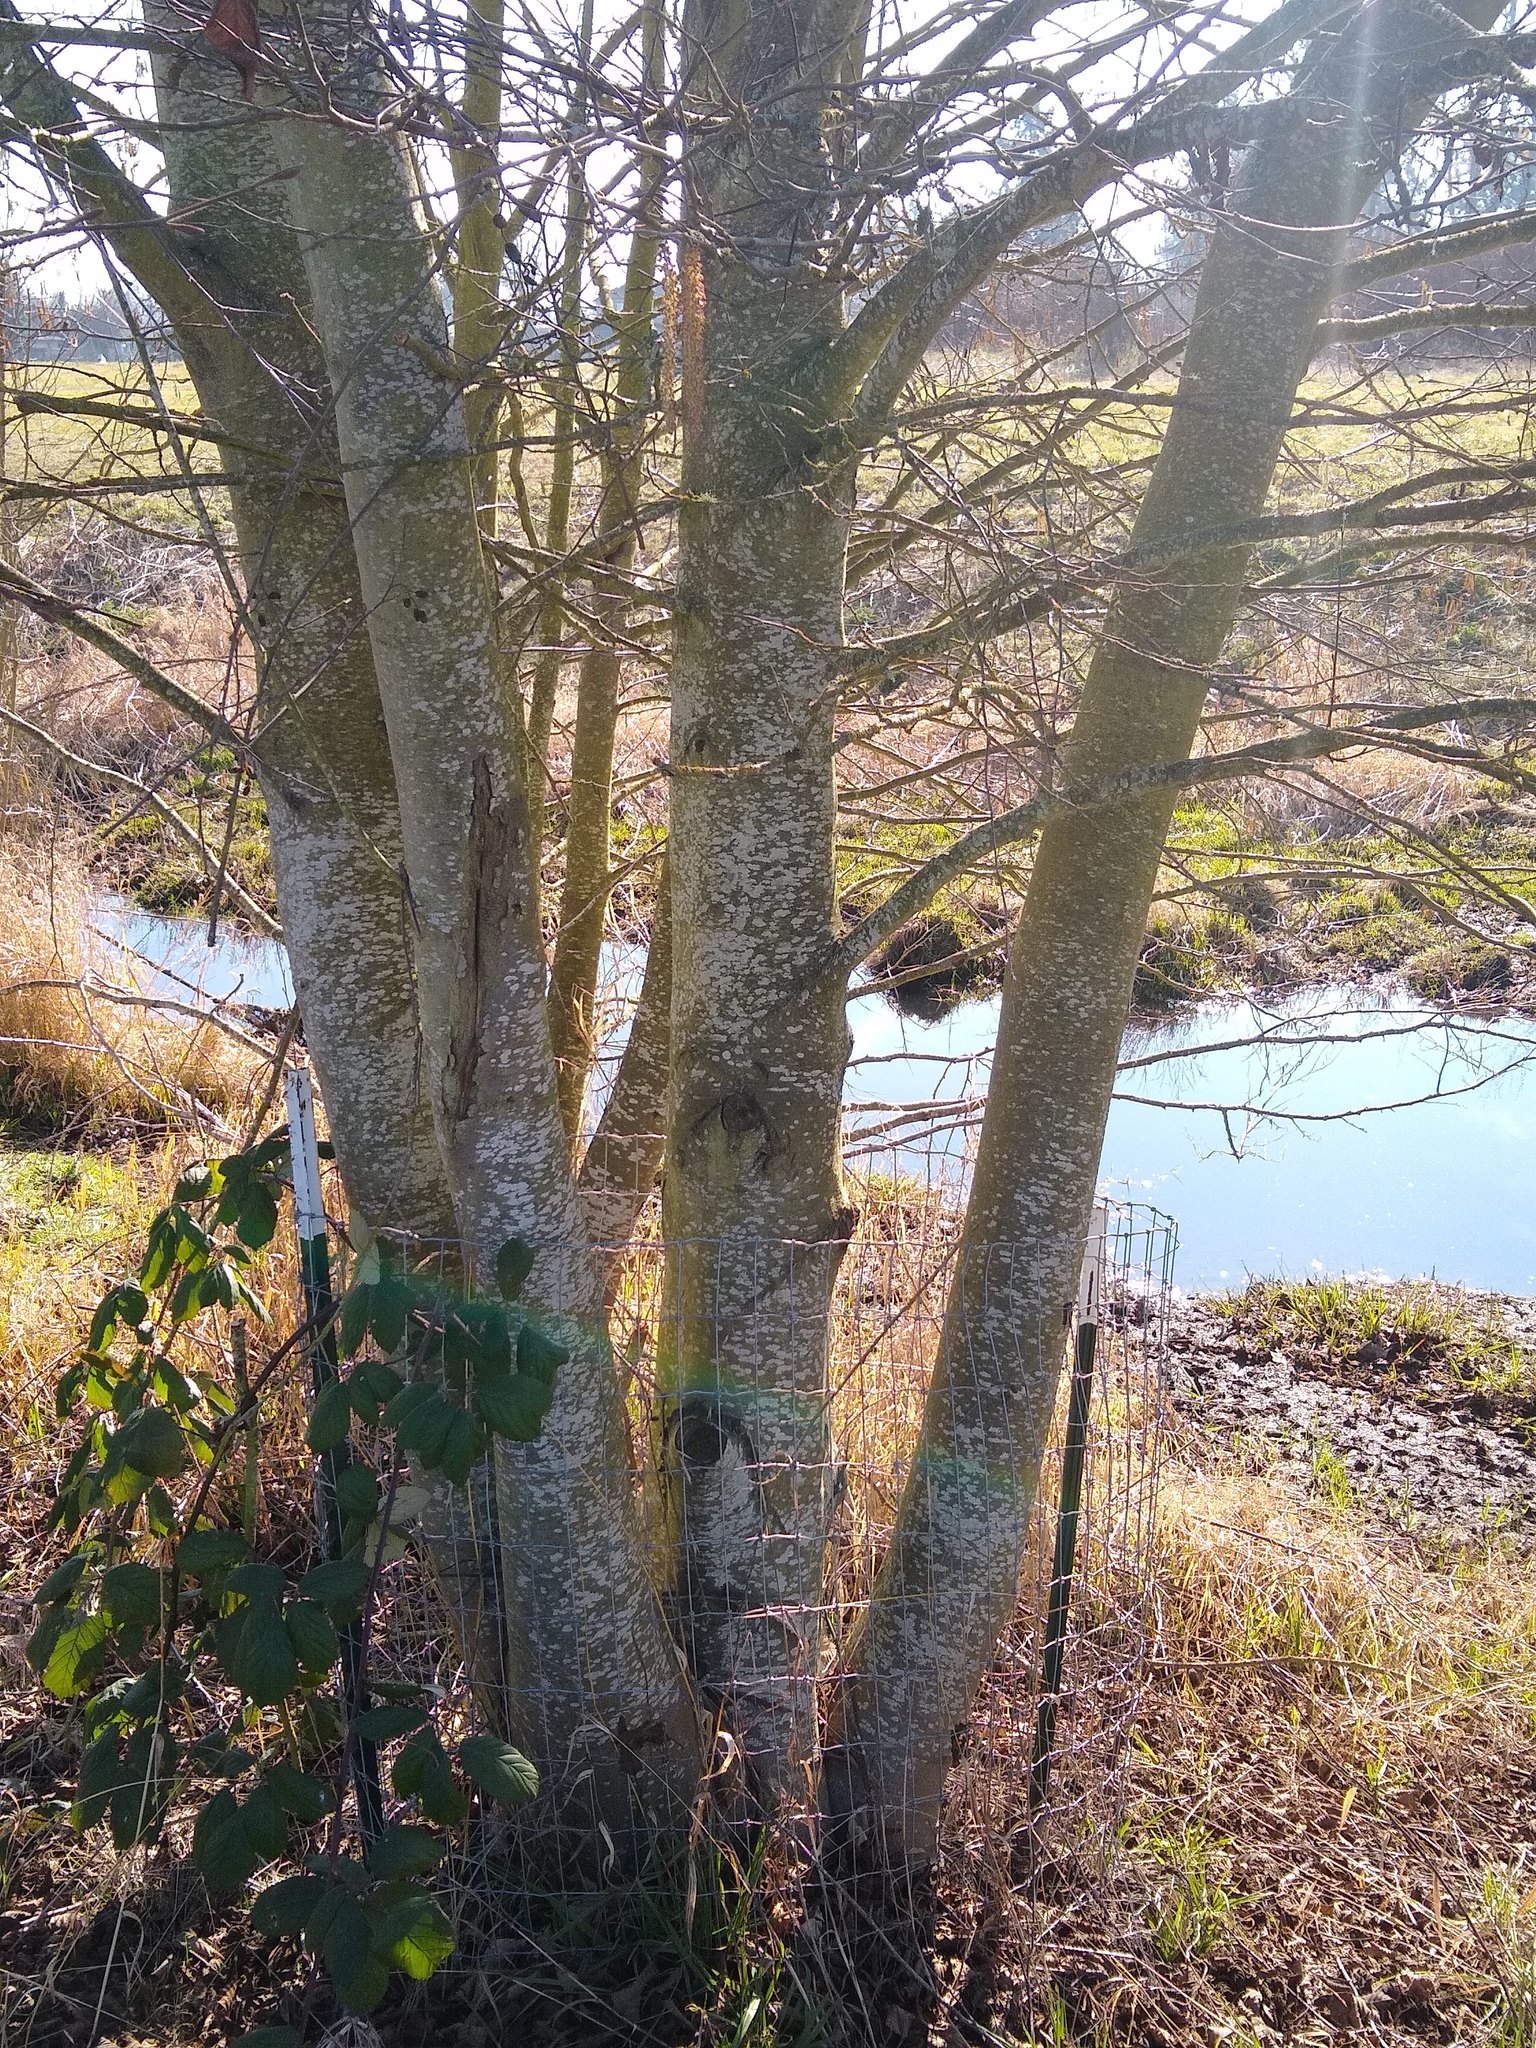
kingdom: Plantae
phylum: Tracheophyta
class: Magnoliopsida
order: Fagales
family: Betulaceae
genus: Alnus
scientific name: Alnus rhombifolia
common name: California alder
